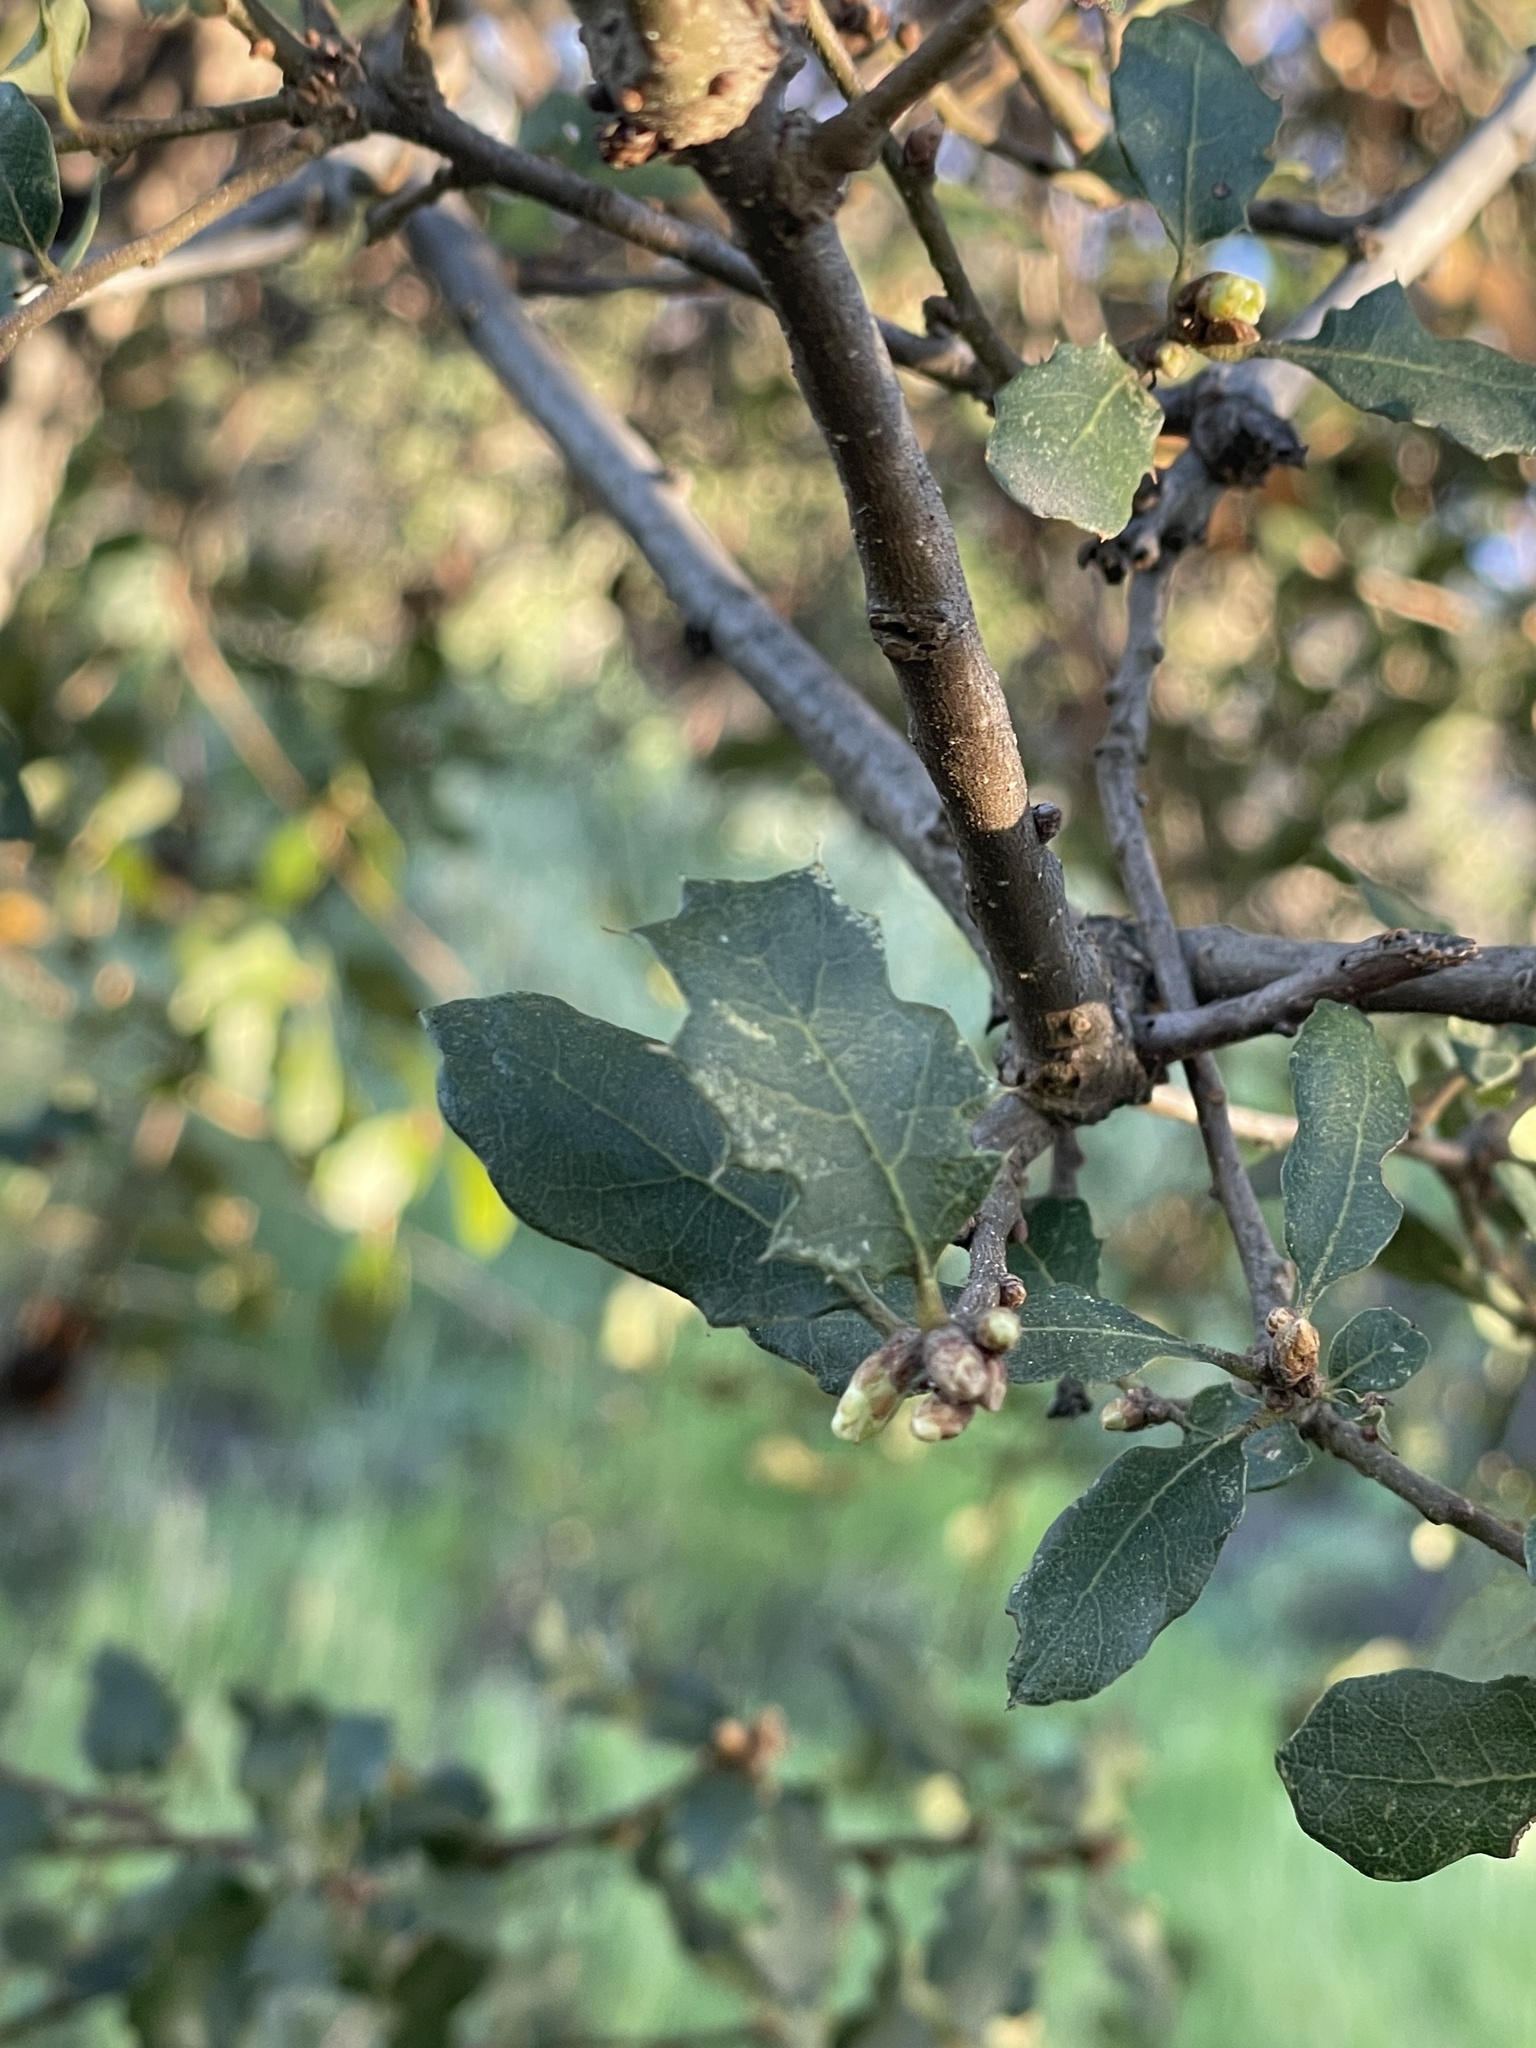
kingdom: Plantae
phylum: Tracheophyta
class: Magnoliopsida
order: Fagales
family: Fagaceae
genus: Quercus
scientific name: Quercus berberidifolia
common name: California scrub oak
